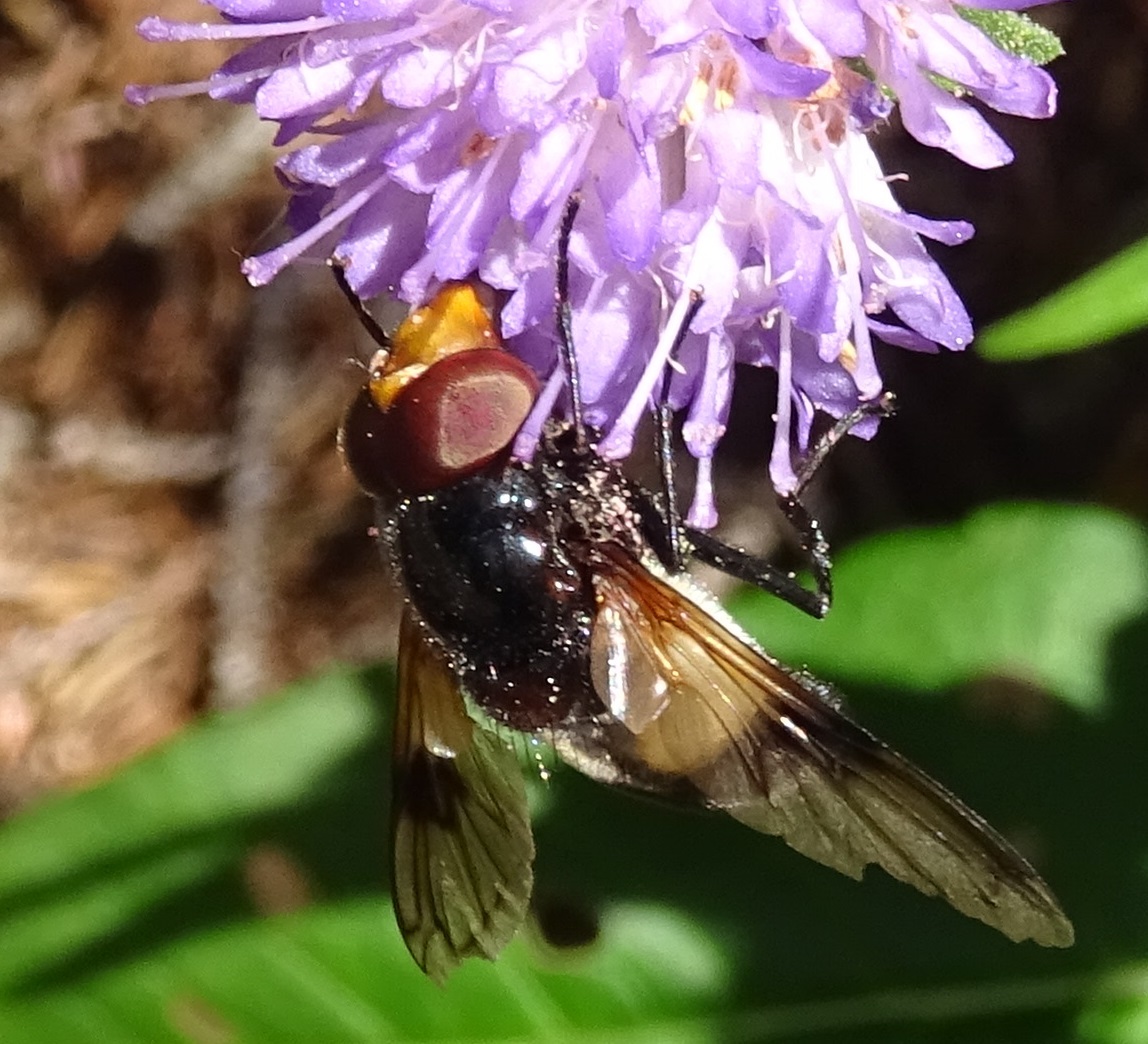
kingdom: Animalia
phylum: Arthropoda
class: Insecta
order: Diptera
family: Syrphidae
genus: Volucella
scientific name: Volucella pellucens
